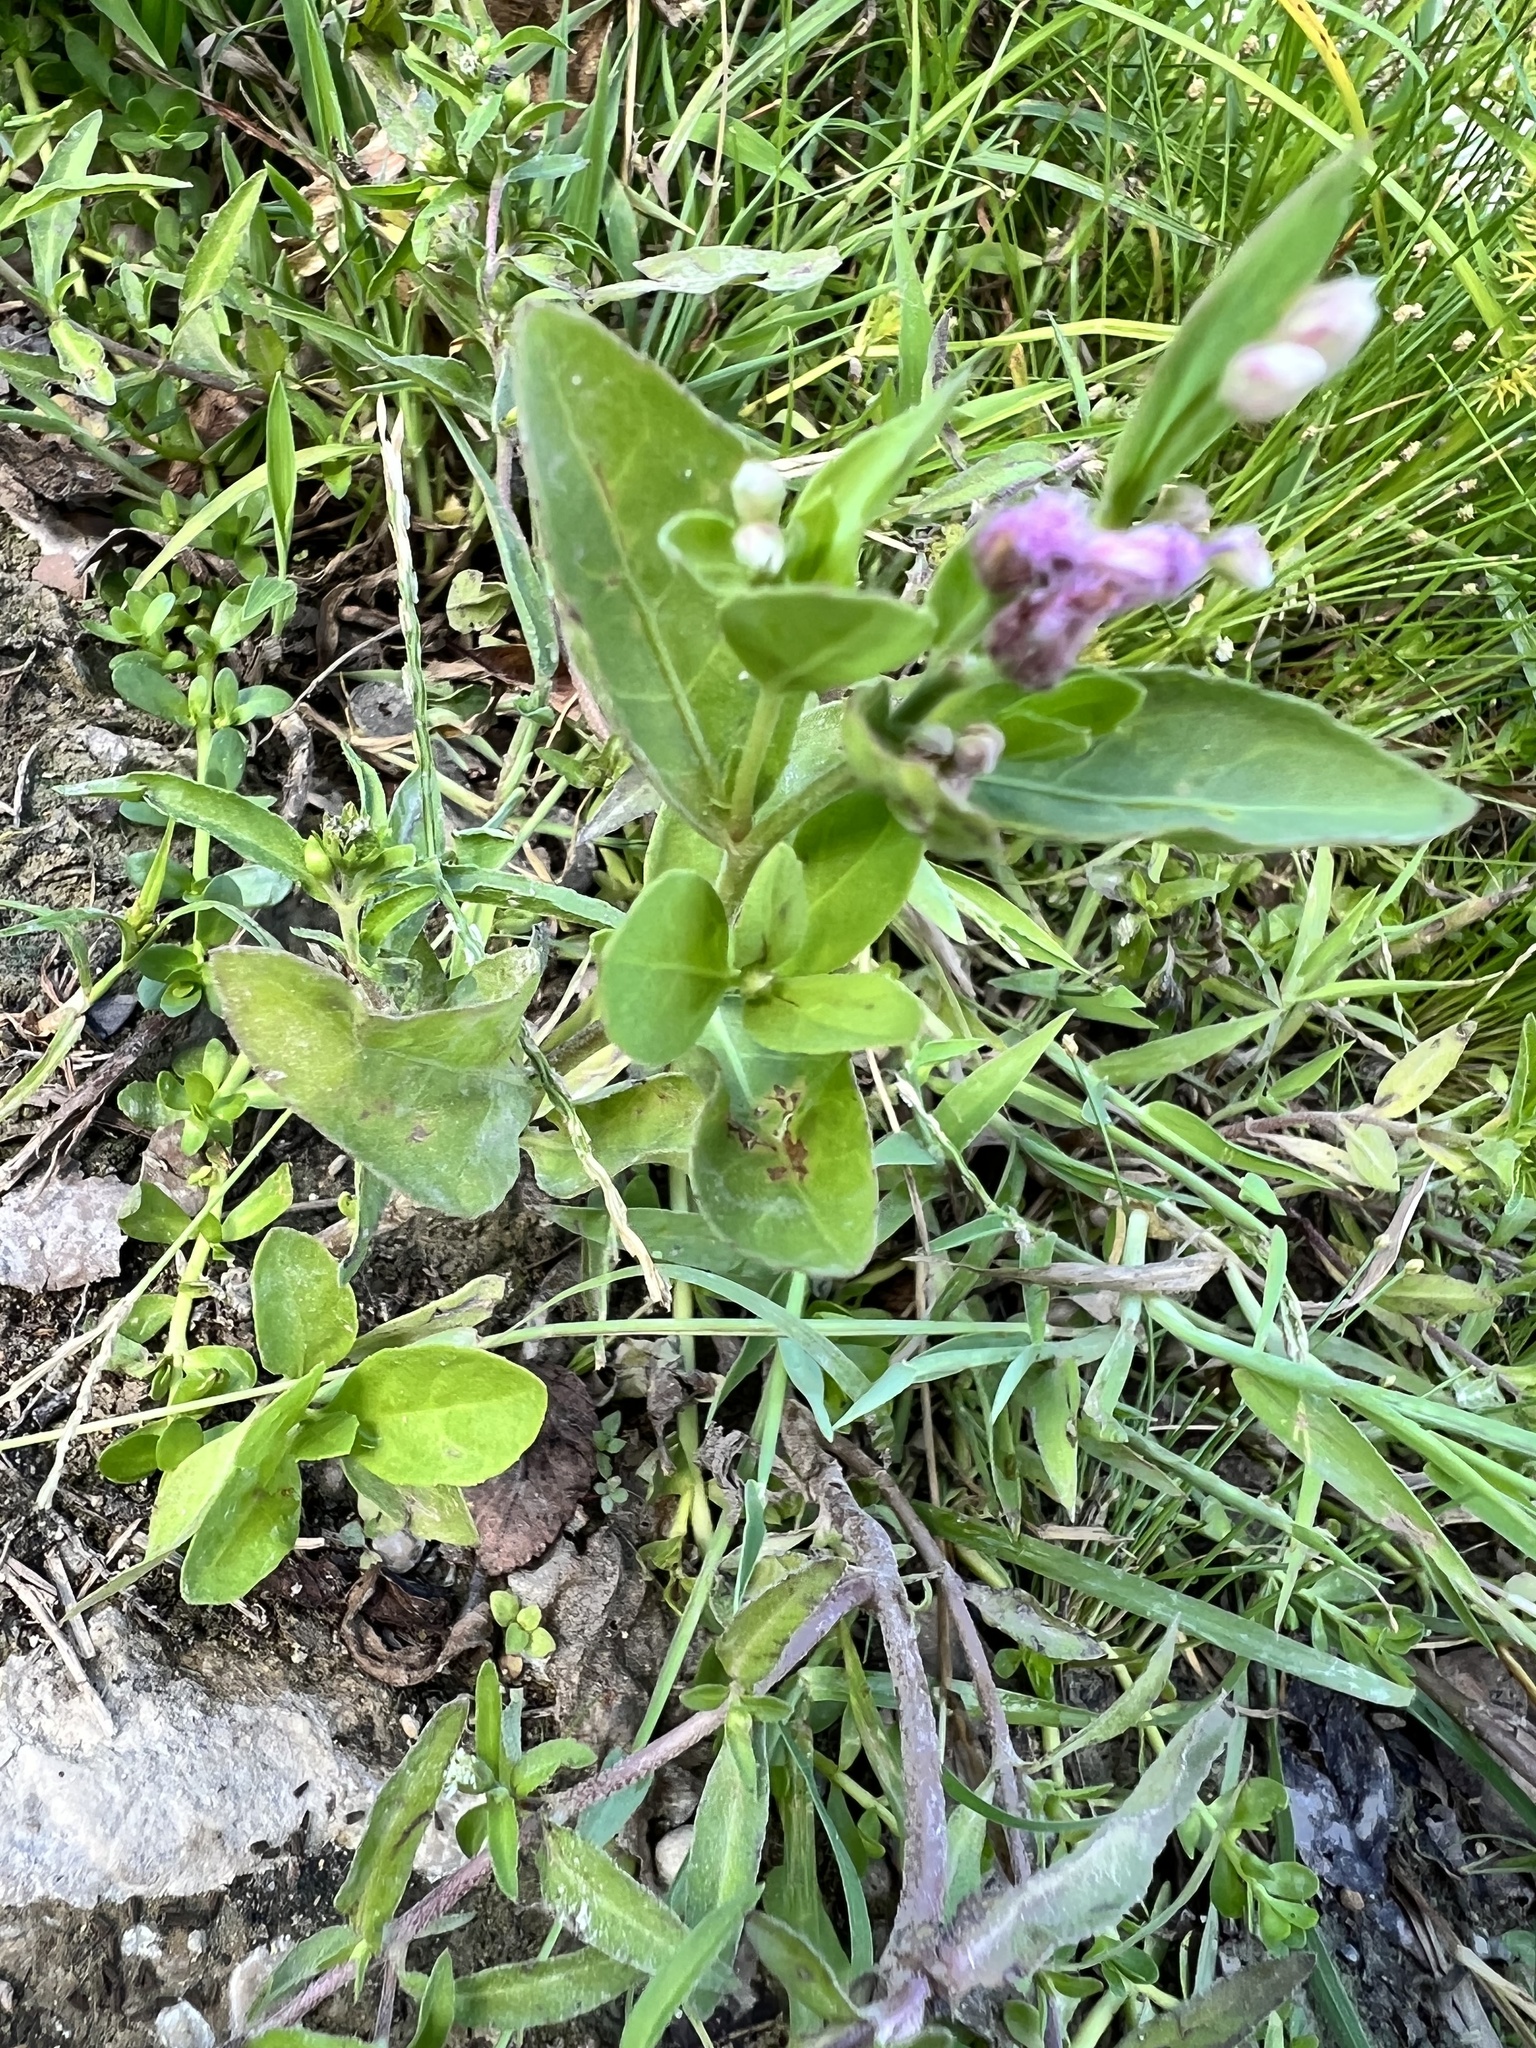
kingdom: Plantae
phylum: Tracheophyta
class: Magnoliopsida
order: Asterales
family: Asteraceae
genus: Pluchea
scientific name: Pluchea odorata
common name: Saltmarsh fleabane
